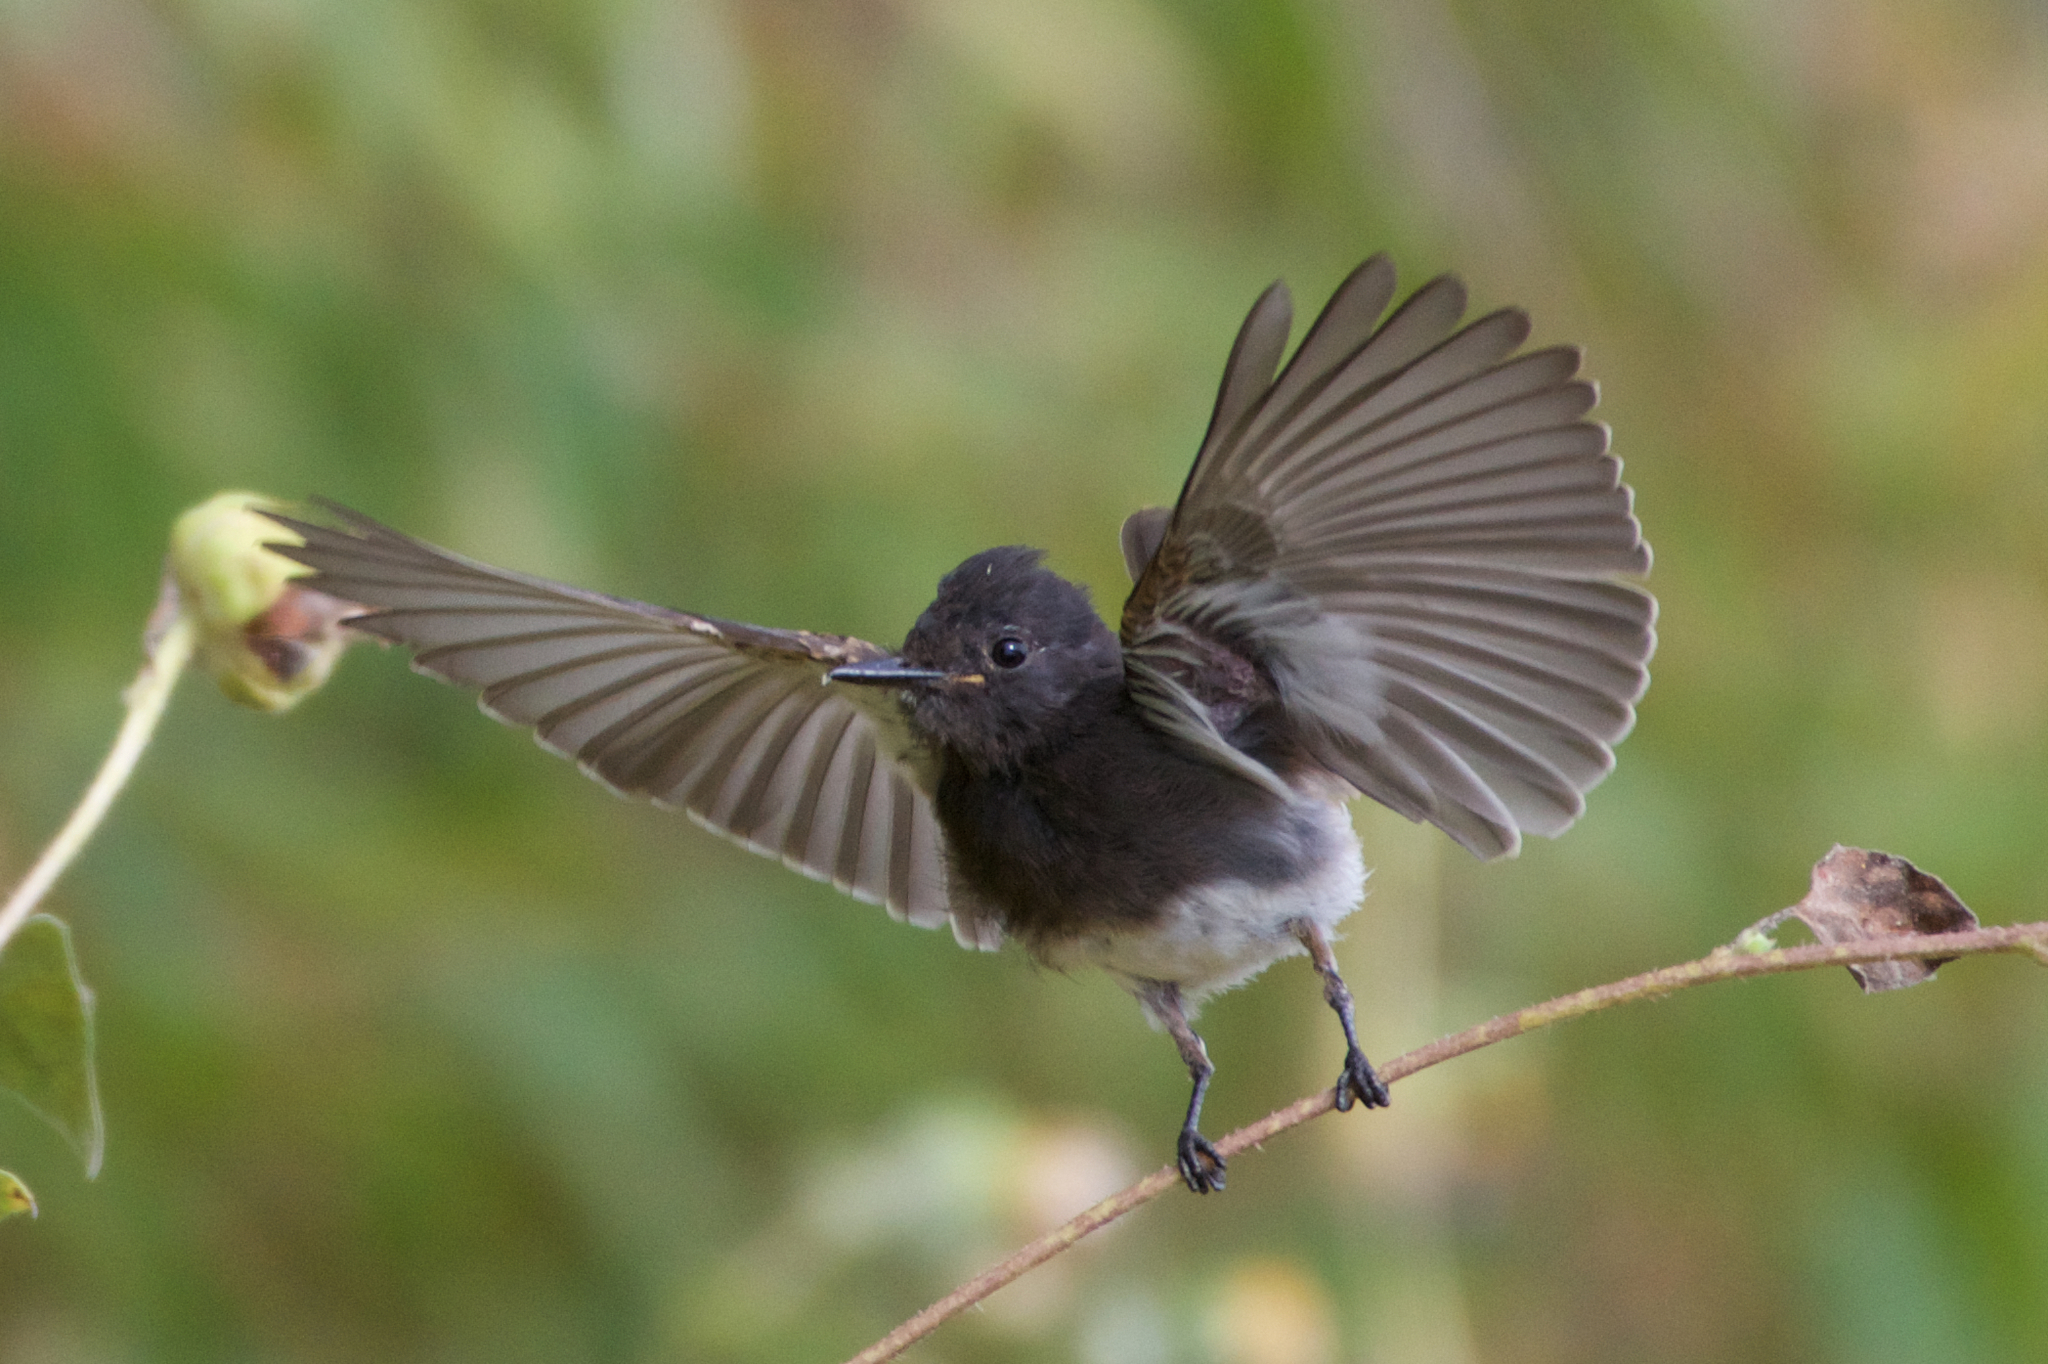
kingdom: Animalia
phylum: Chordata
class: Aves
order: Passeriformes
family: Tyrannidae
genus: Sayornis
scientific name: Sayornis nigricans
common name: Black phoebe
